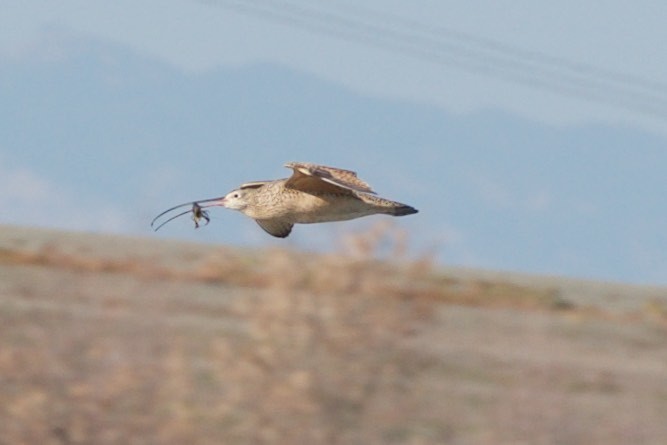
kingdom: Animalia
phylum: Chordata
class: Aves
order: Charadriiformes
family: Scolopacidae
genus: Numenius
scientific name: Numenius americanus
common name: Long-billed curlew
